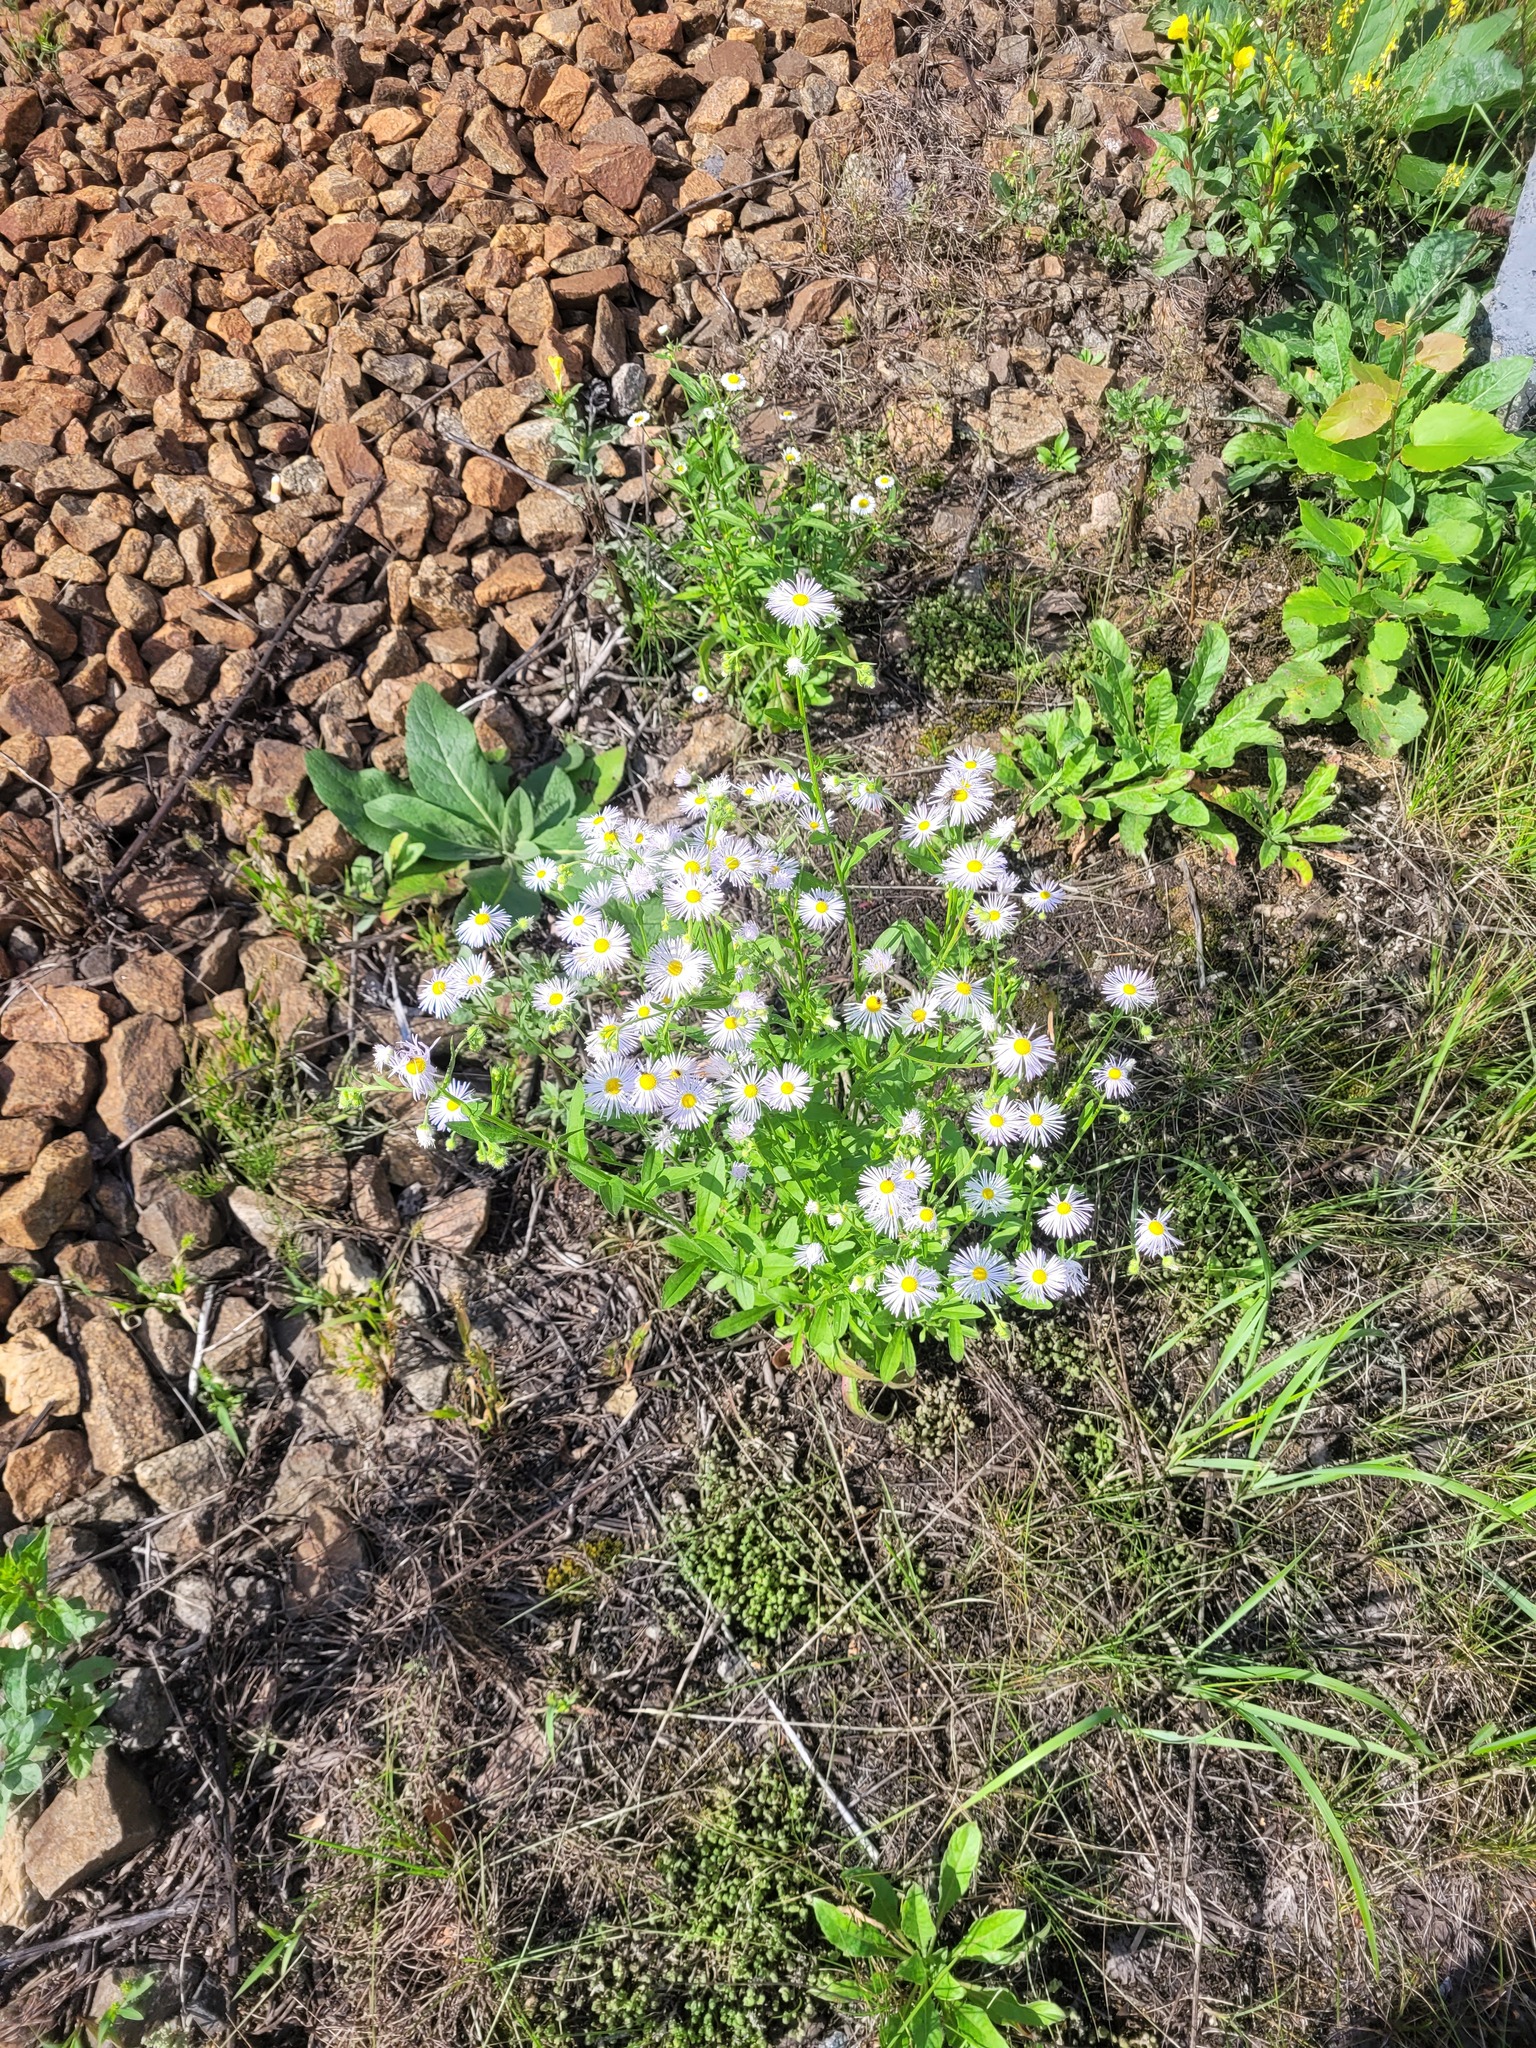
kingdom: Plantae
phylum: Tracheophyta
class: Magnoliopsida
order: Asterales
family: Asteraceae
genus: Erigeron
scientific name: Erigeron annuus
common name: Tall fleabane
